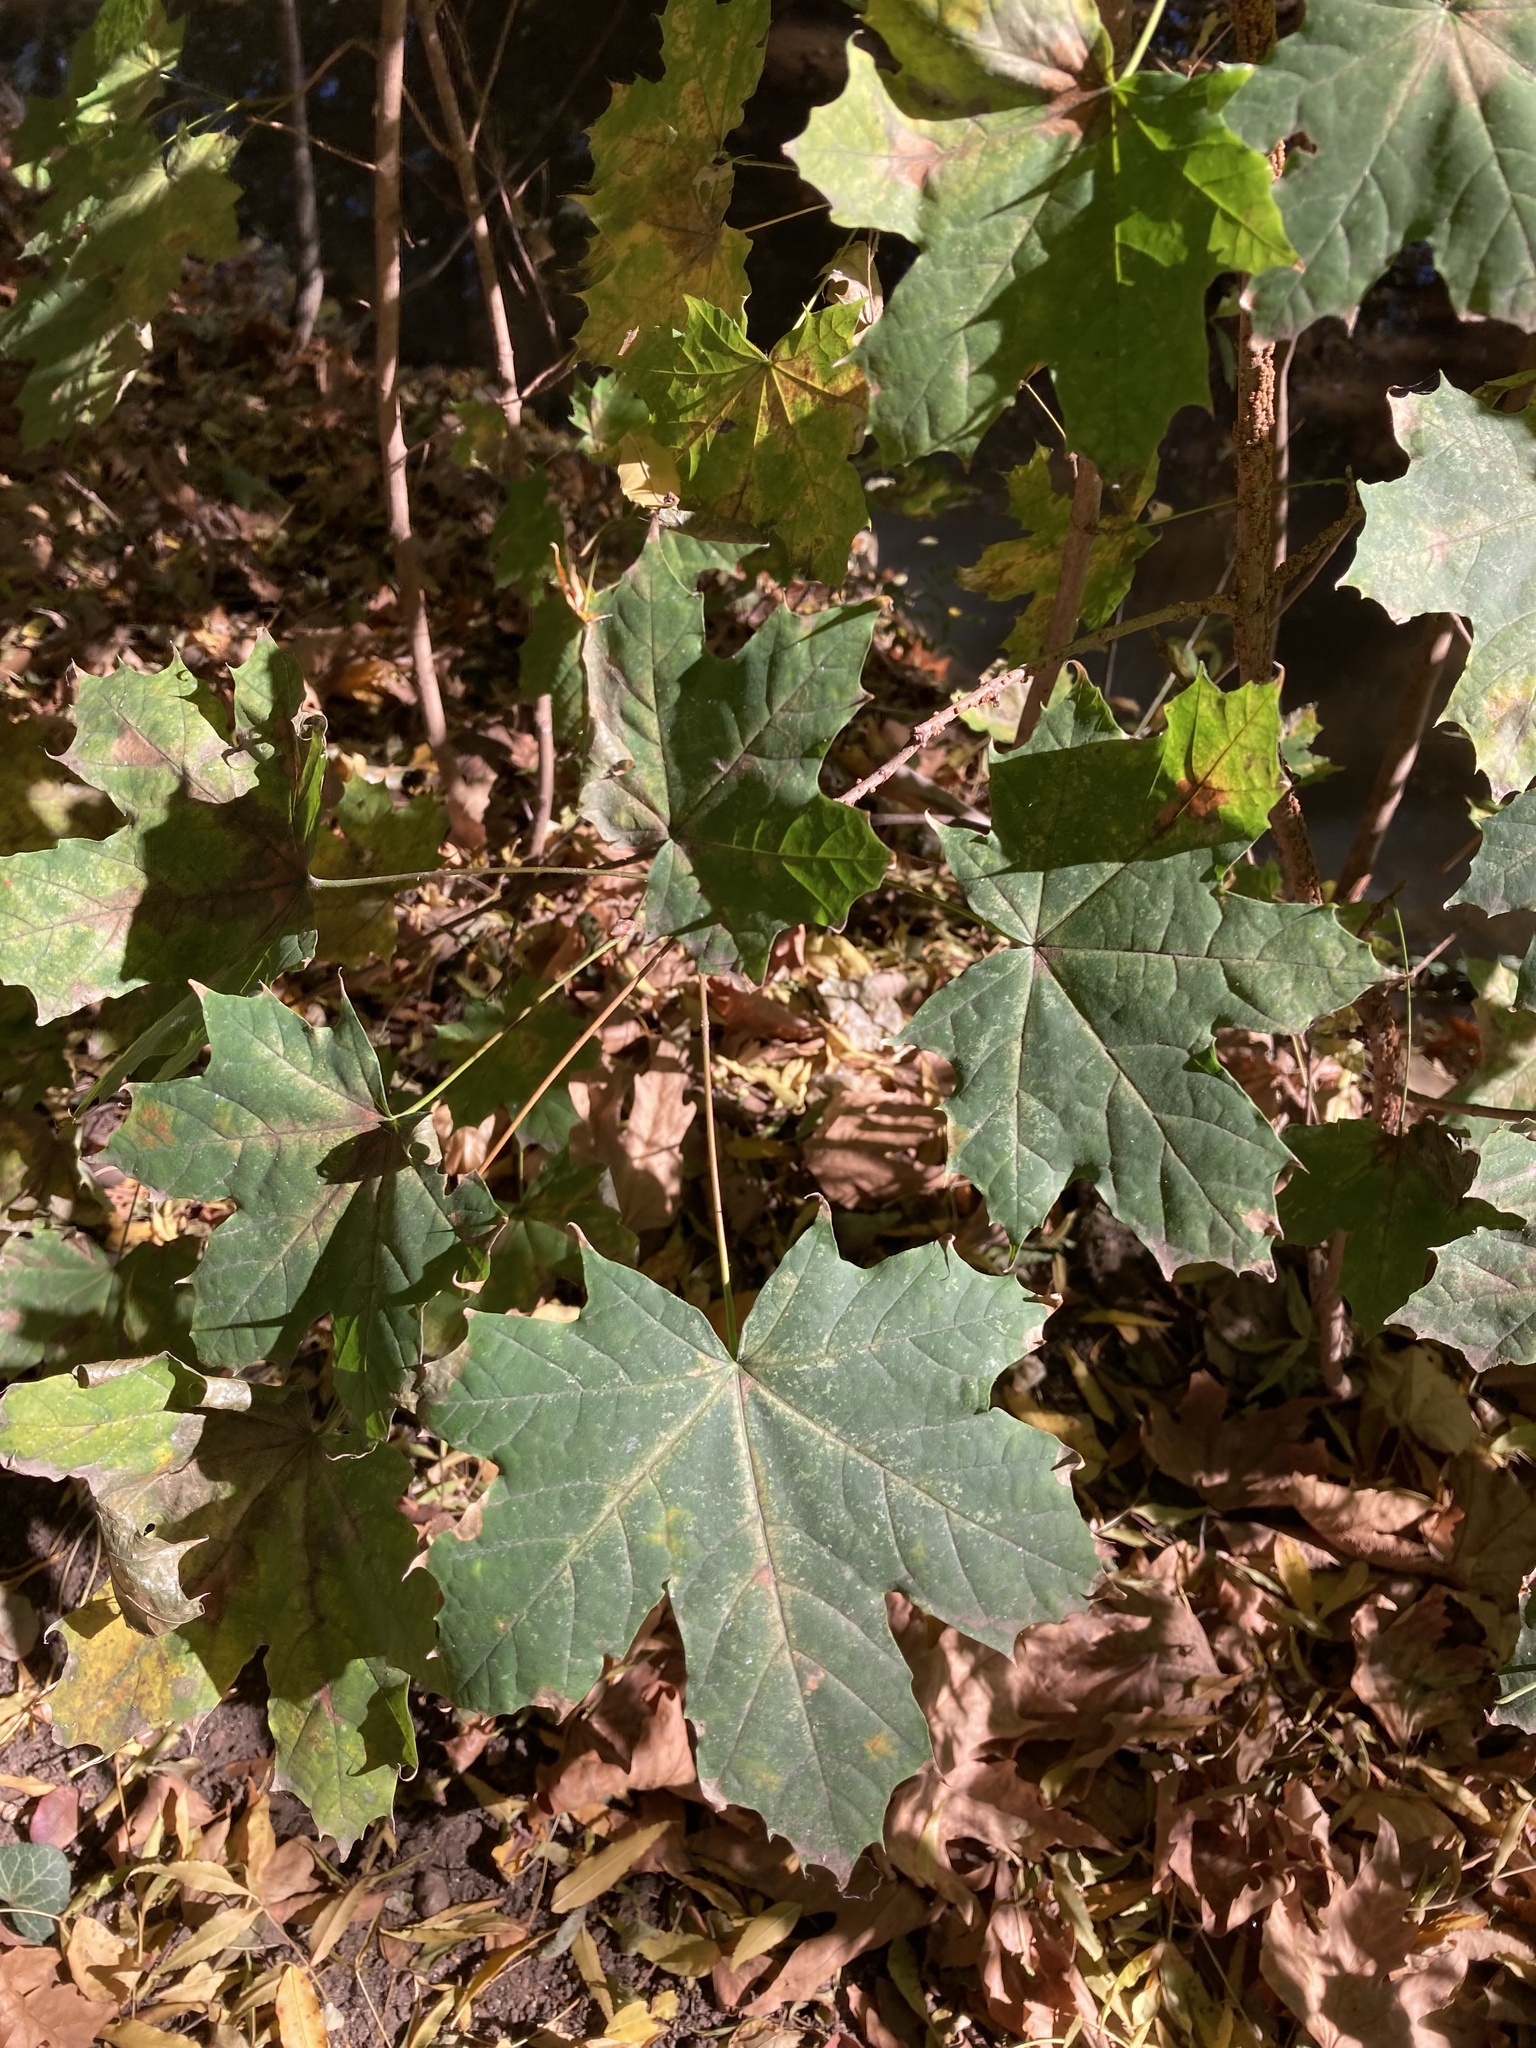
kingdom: Plantae
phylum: Tracheophyta
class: Magnoliopsida
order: Sapindales
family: Sapindaceae
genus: Acer
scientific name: Acer platanoides
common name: Norway maple
